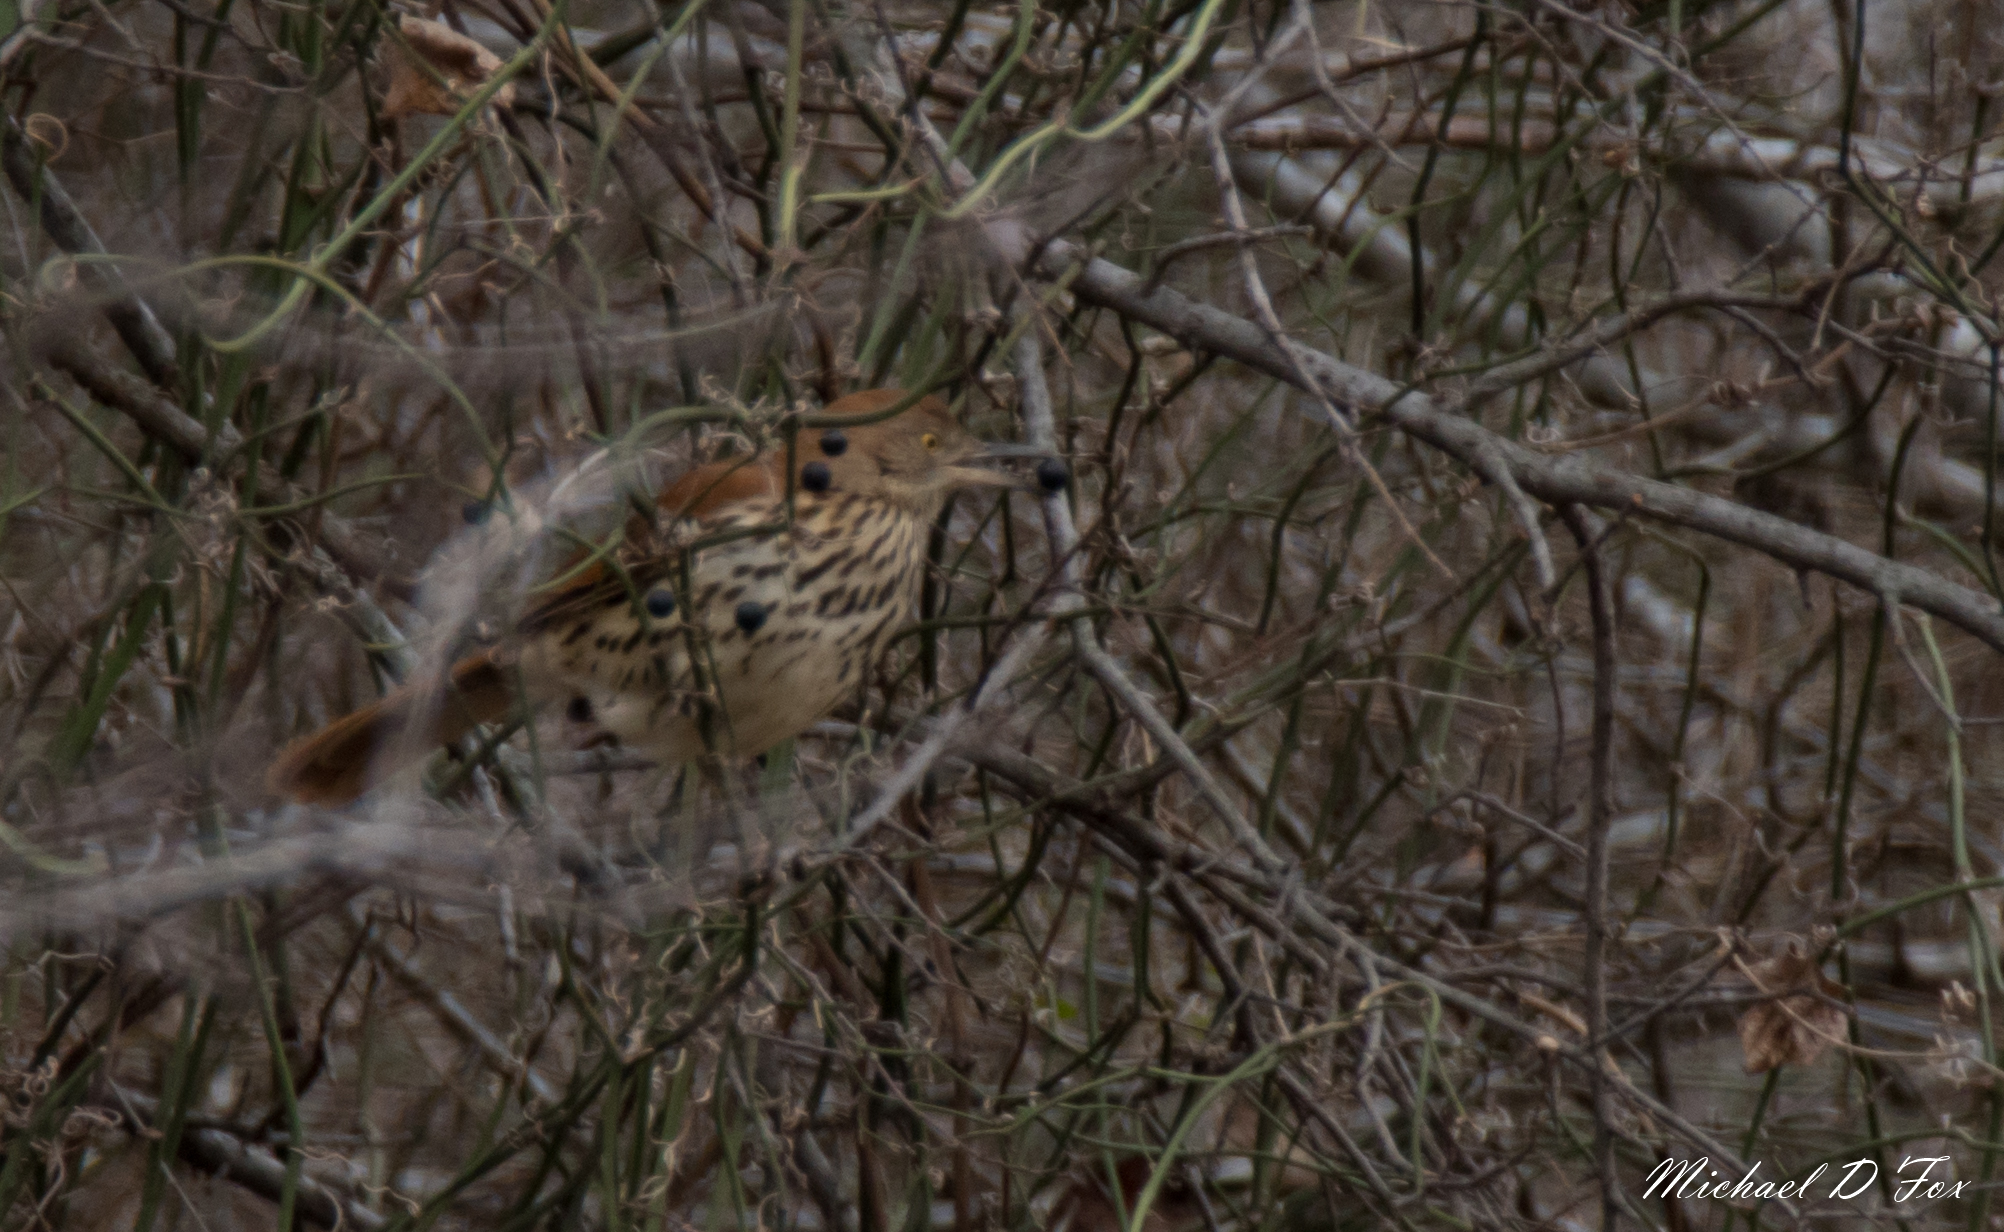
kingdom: Animalia
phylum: Chordata
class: Aves
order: Passeriformes
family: Mimidae
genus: Toxostoma
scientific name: Toxostoma rufum
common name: Brown thrasher
